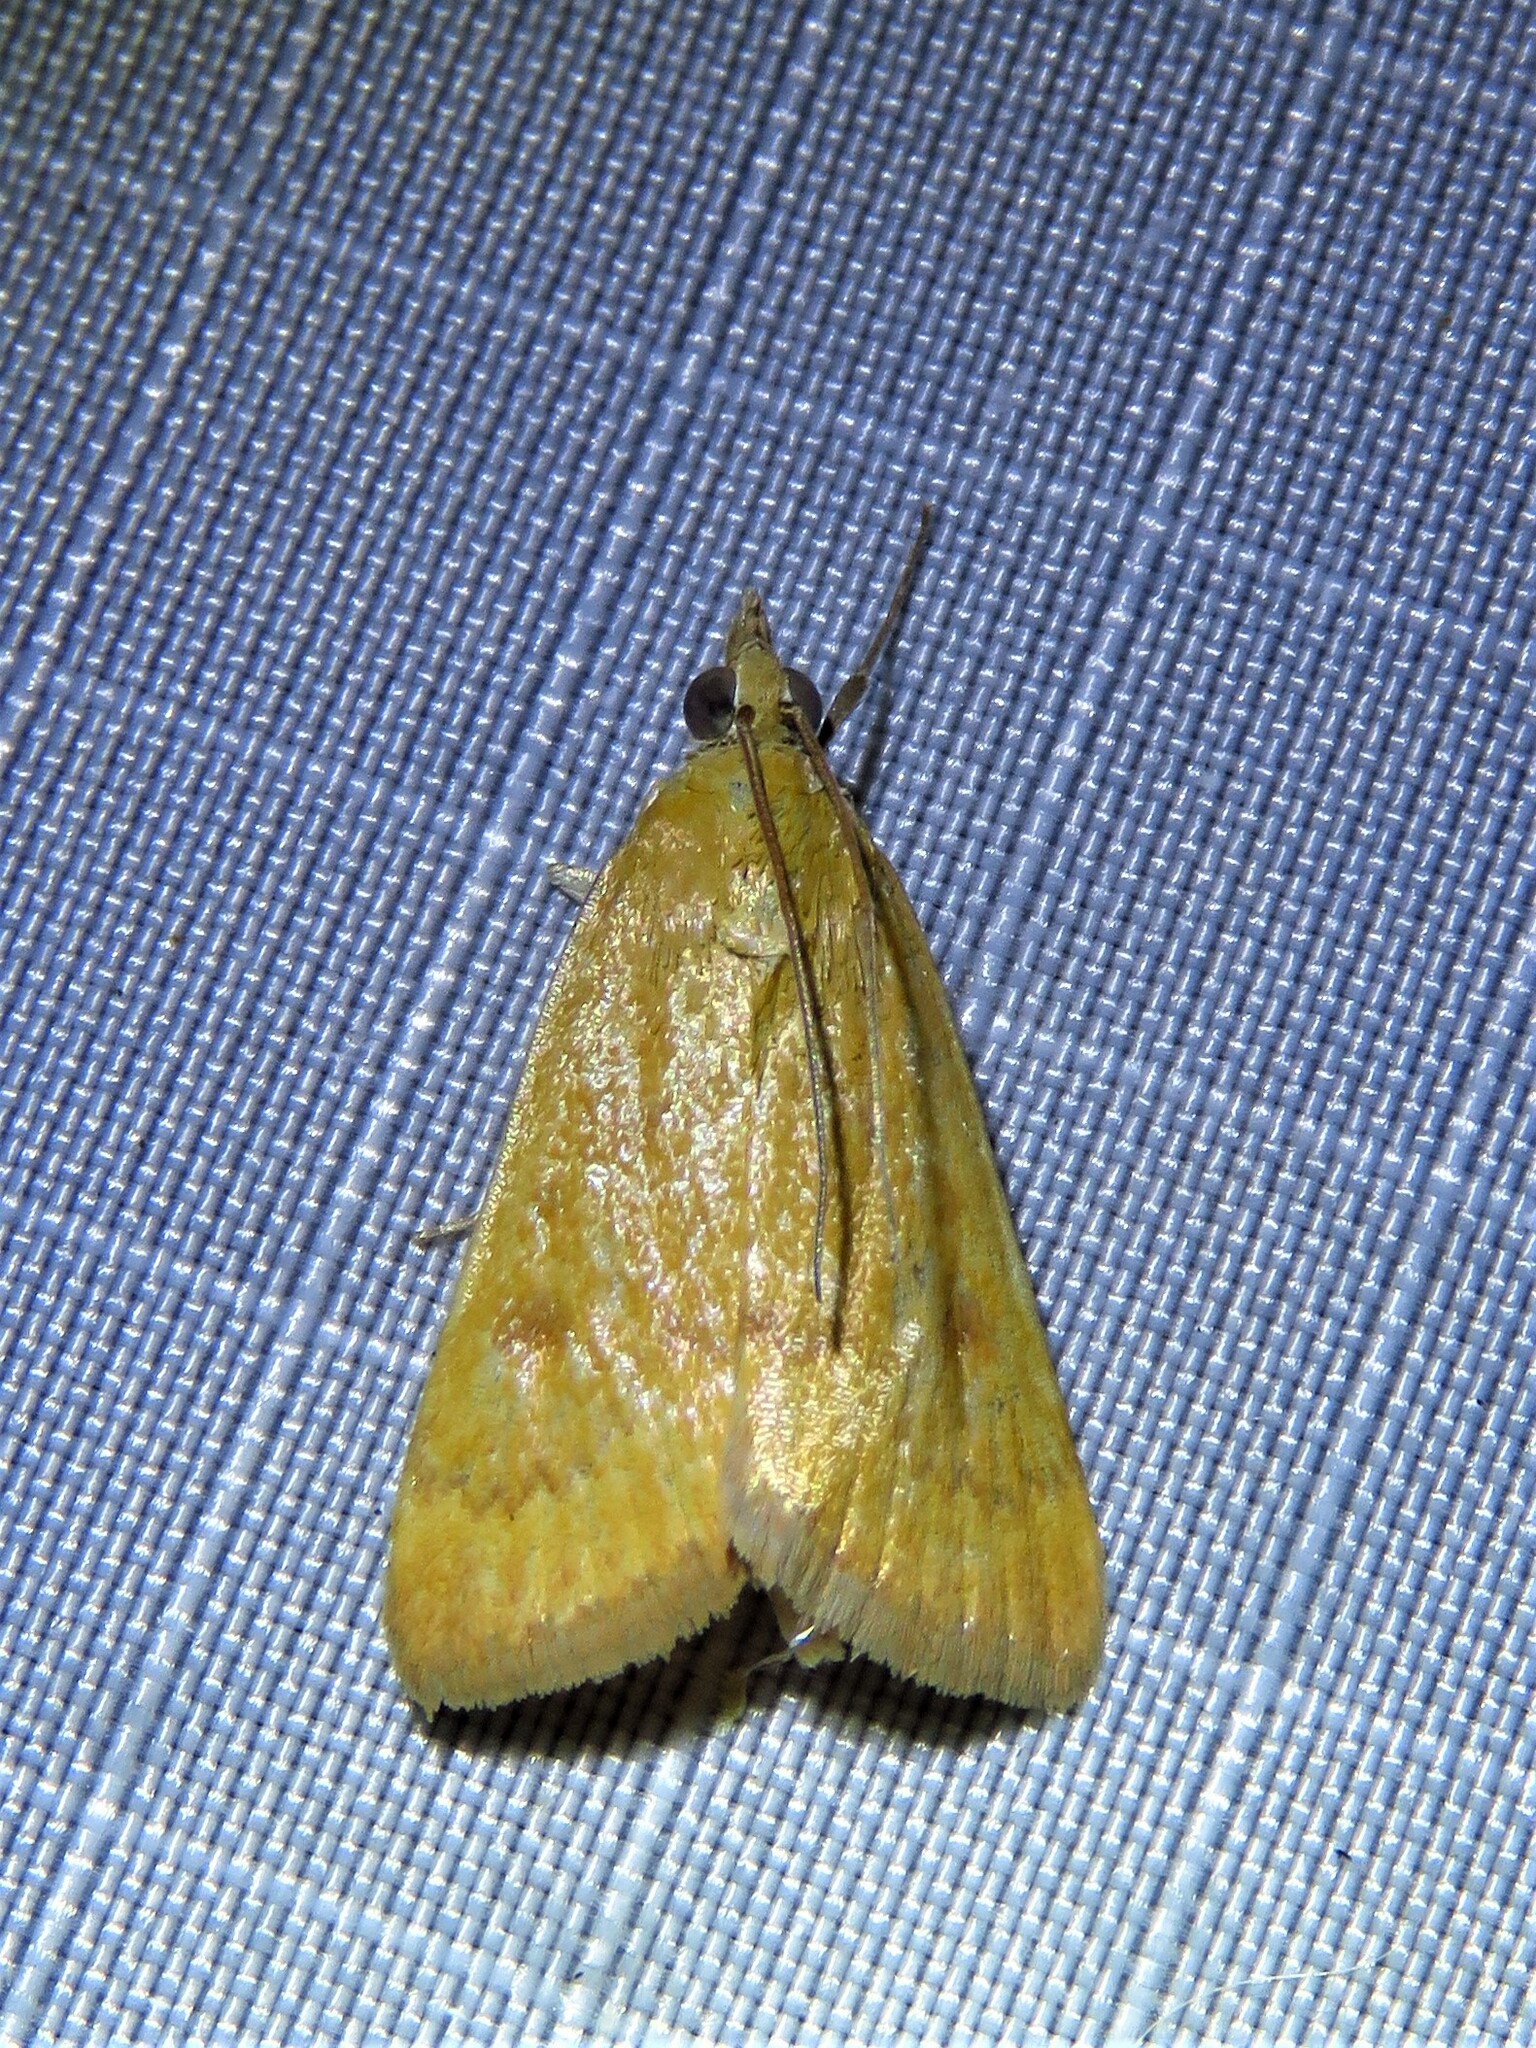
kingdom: Animalia
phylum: Arthropoda
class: Insecta
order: Lepidoptera
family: Crambidae
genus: Achyra
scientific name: Achyra rantalis
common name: Garden webworm
